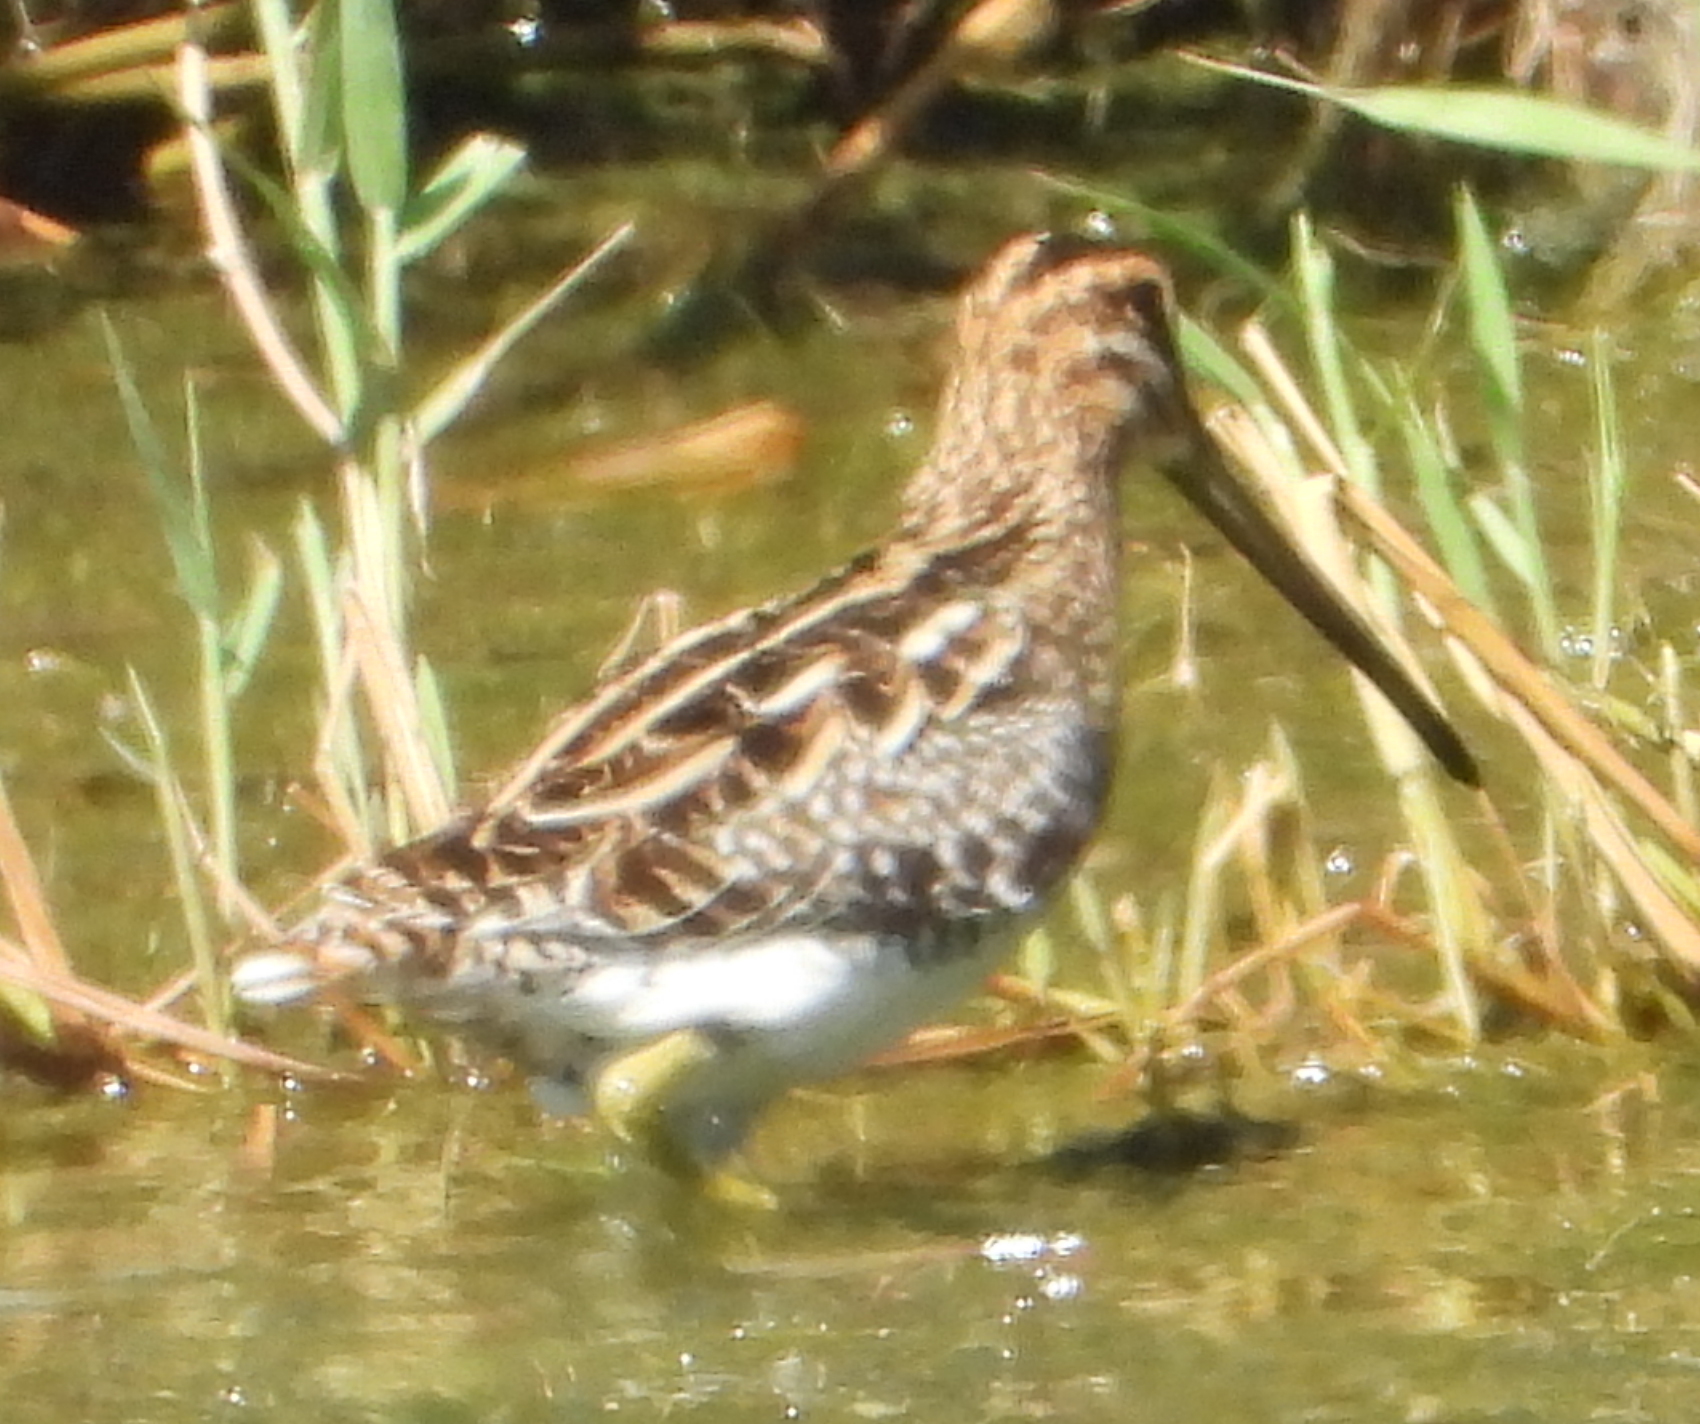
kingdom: Animalia
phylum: Chordata
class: Aves
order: Charadriiformes
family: Scolopacidae
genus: Gallinago
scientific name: Gallinago nigripennis
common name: African snipe
